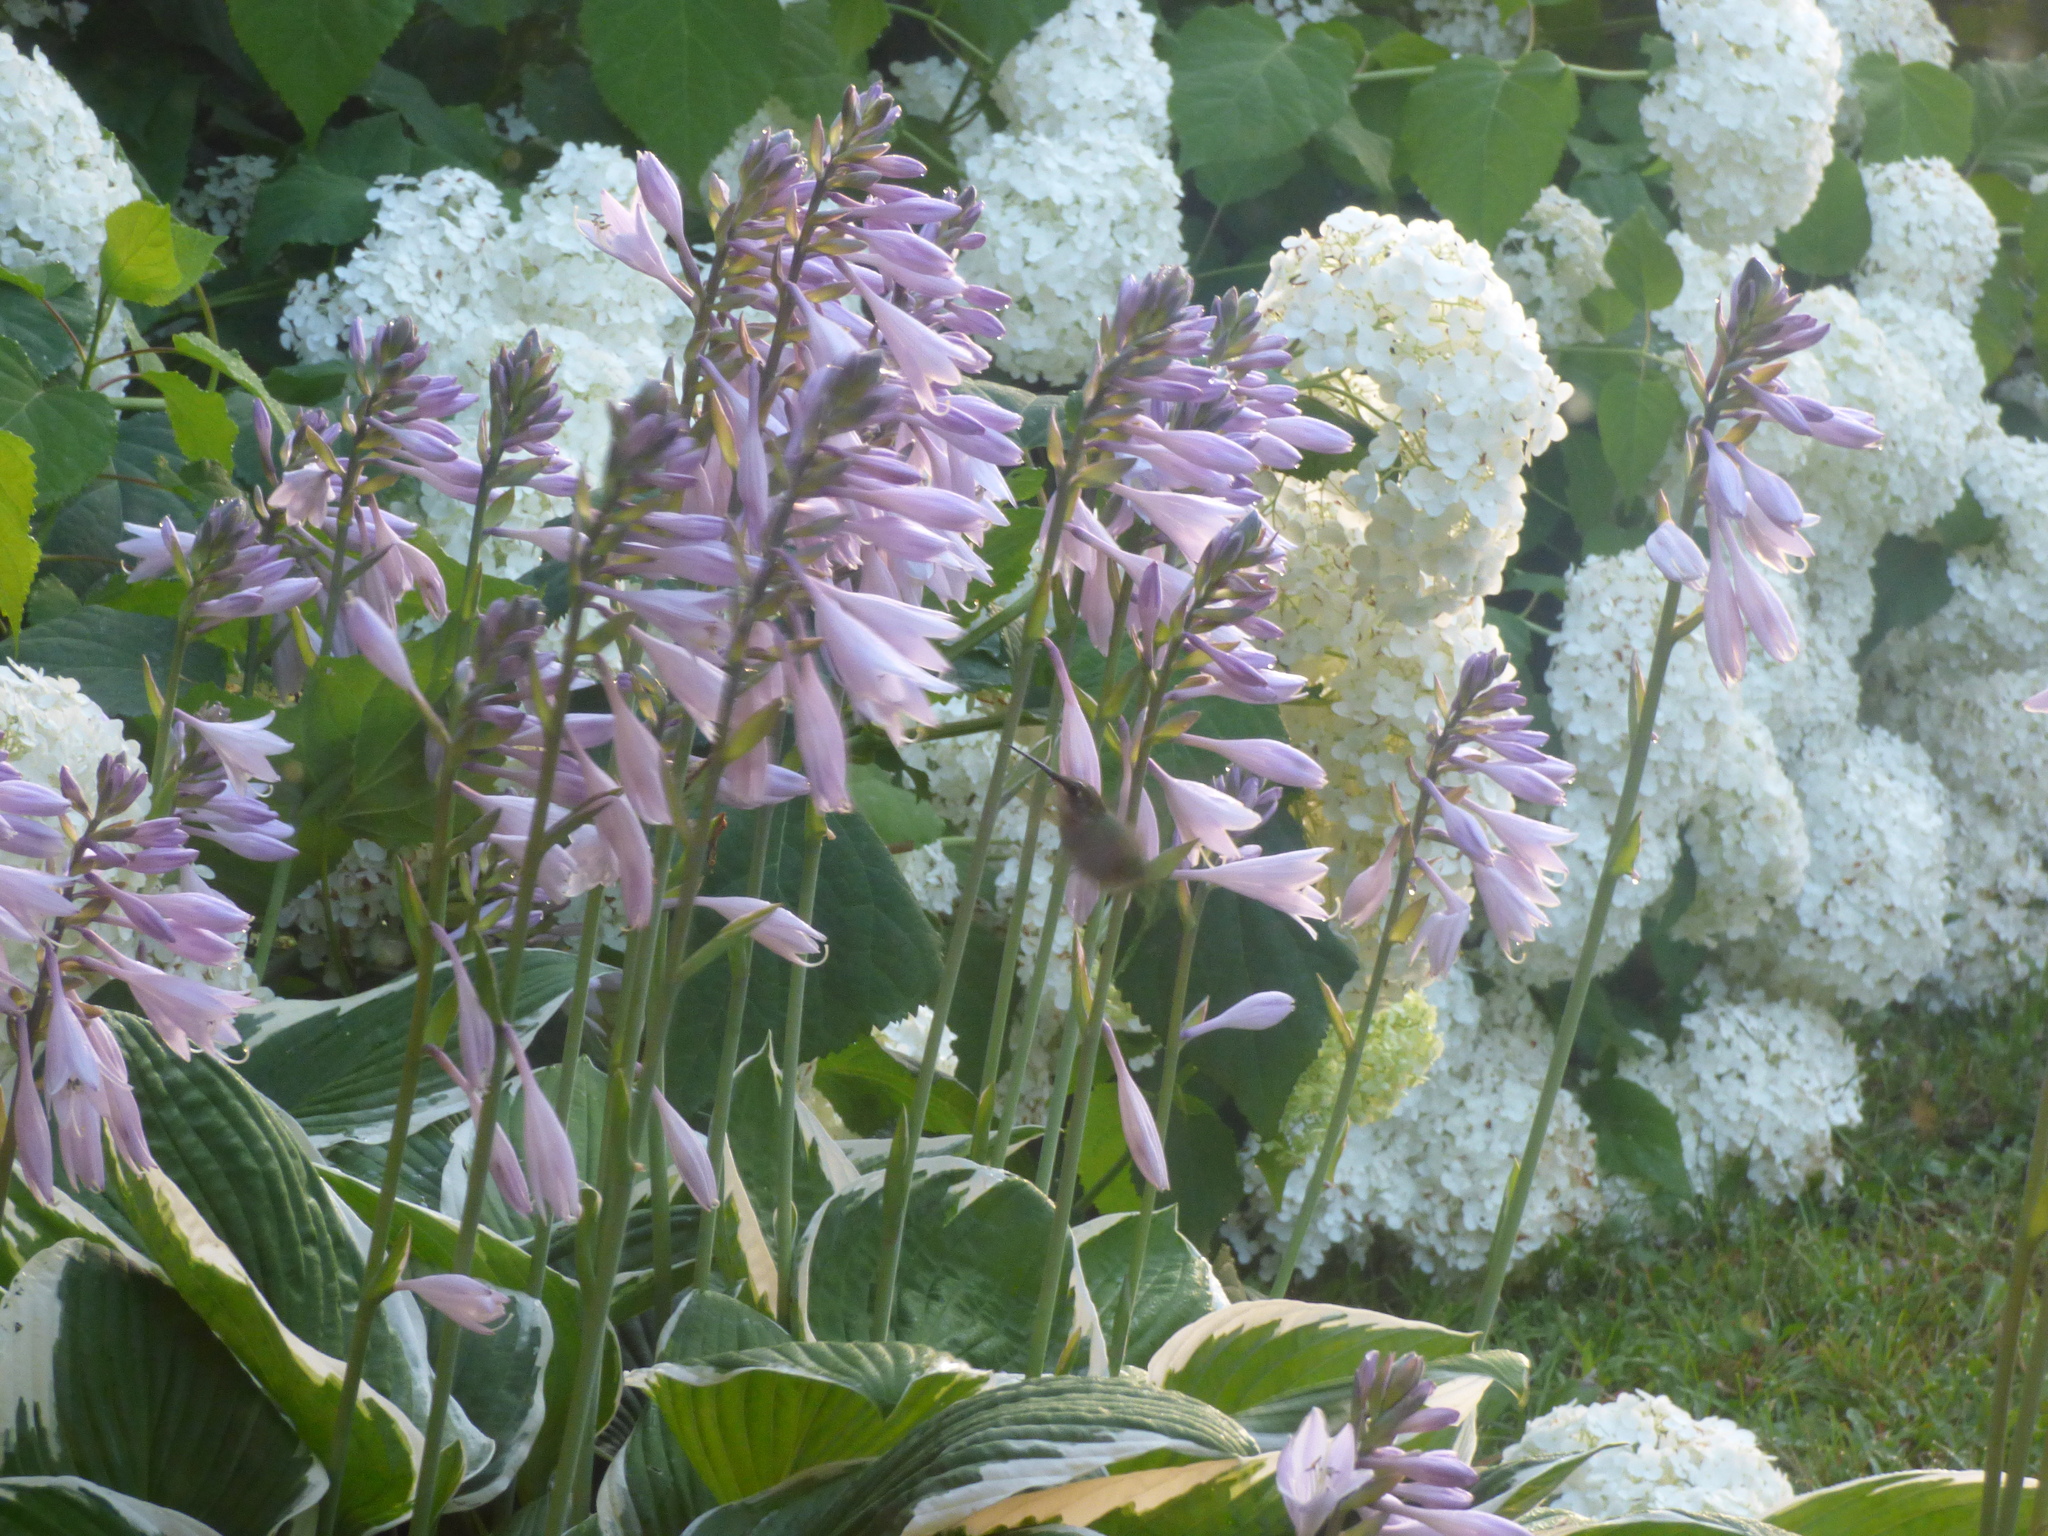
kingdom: Animalia
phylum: Chordata
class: Aves
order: Apodiformes
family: Trochilidae
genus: Archilochus
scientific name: Archilochus colubris
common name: Ruby-throated hummingbird
